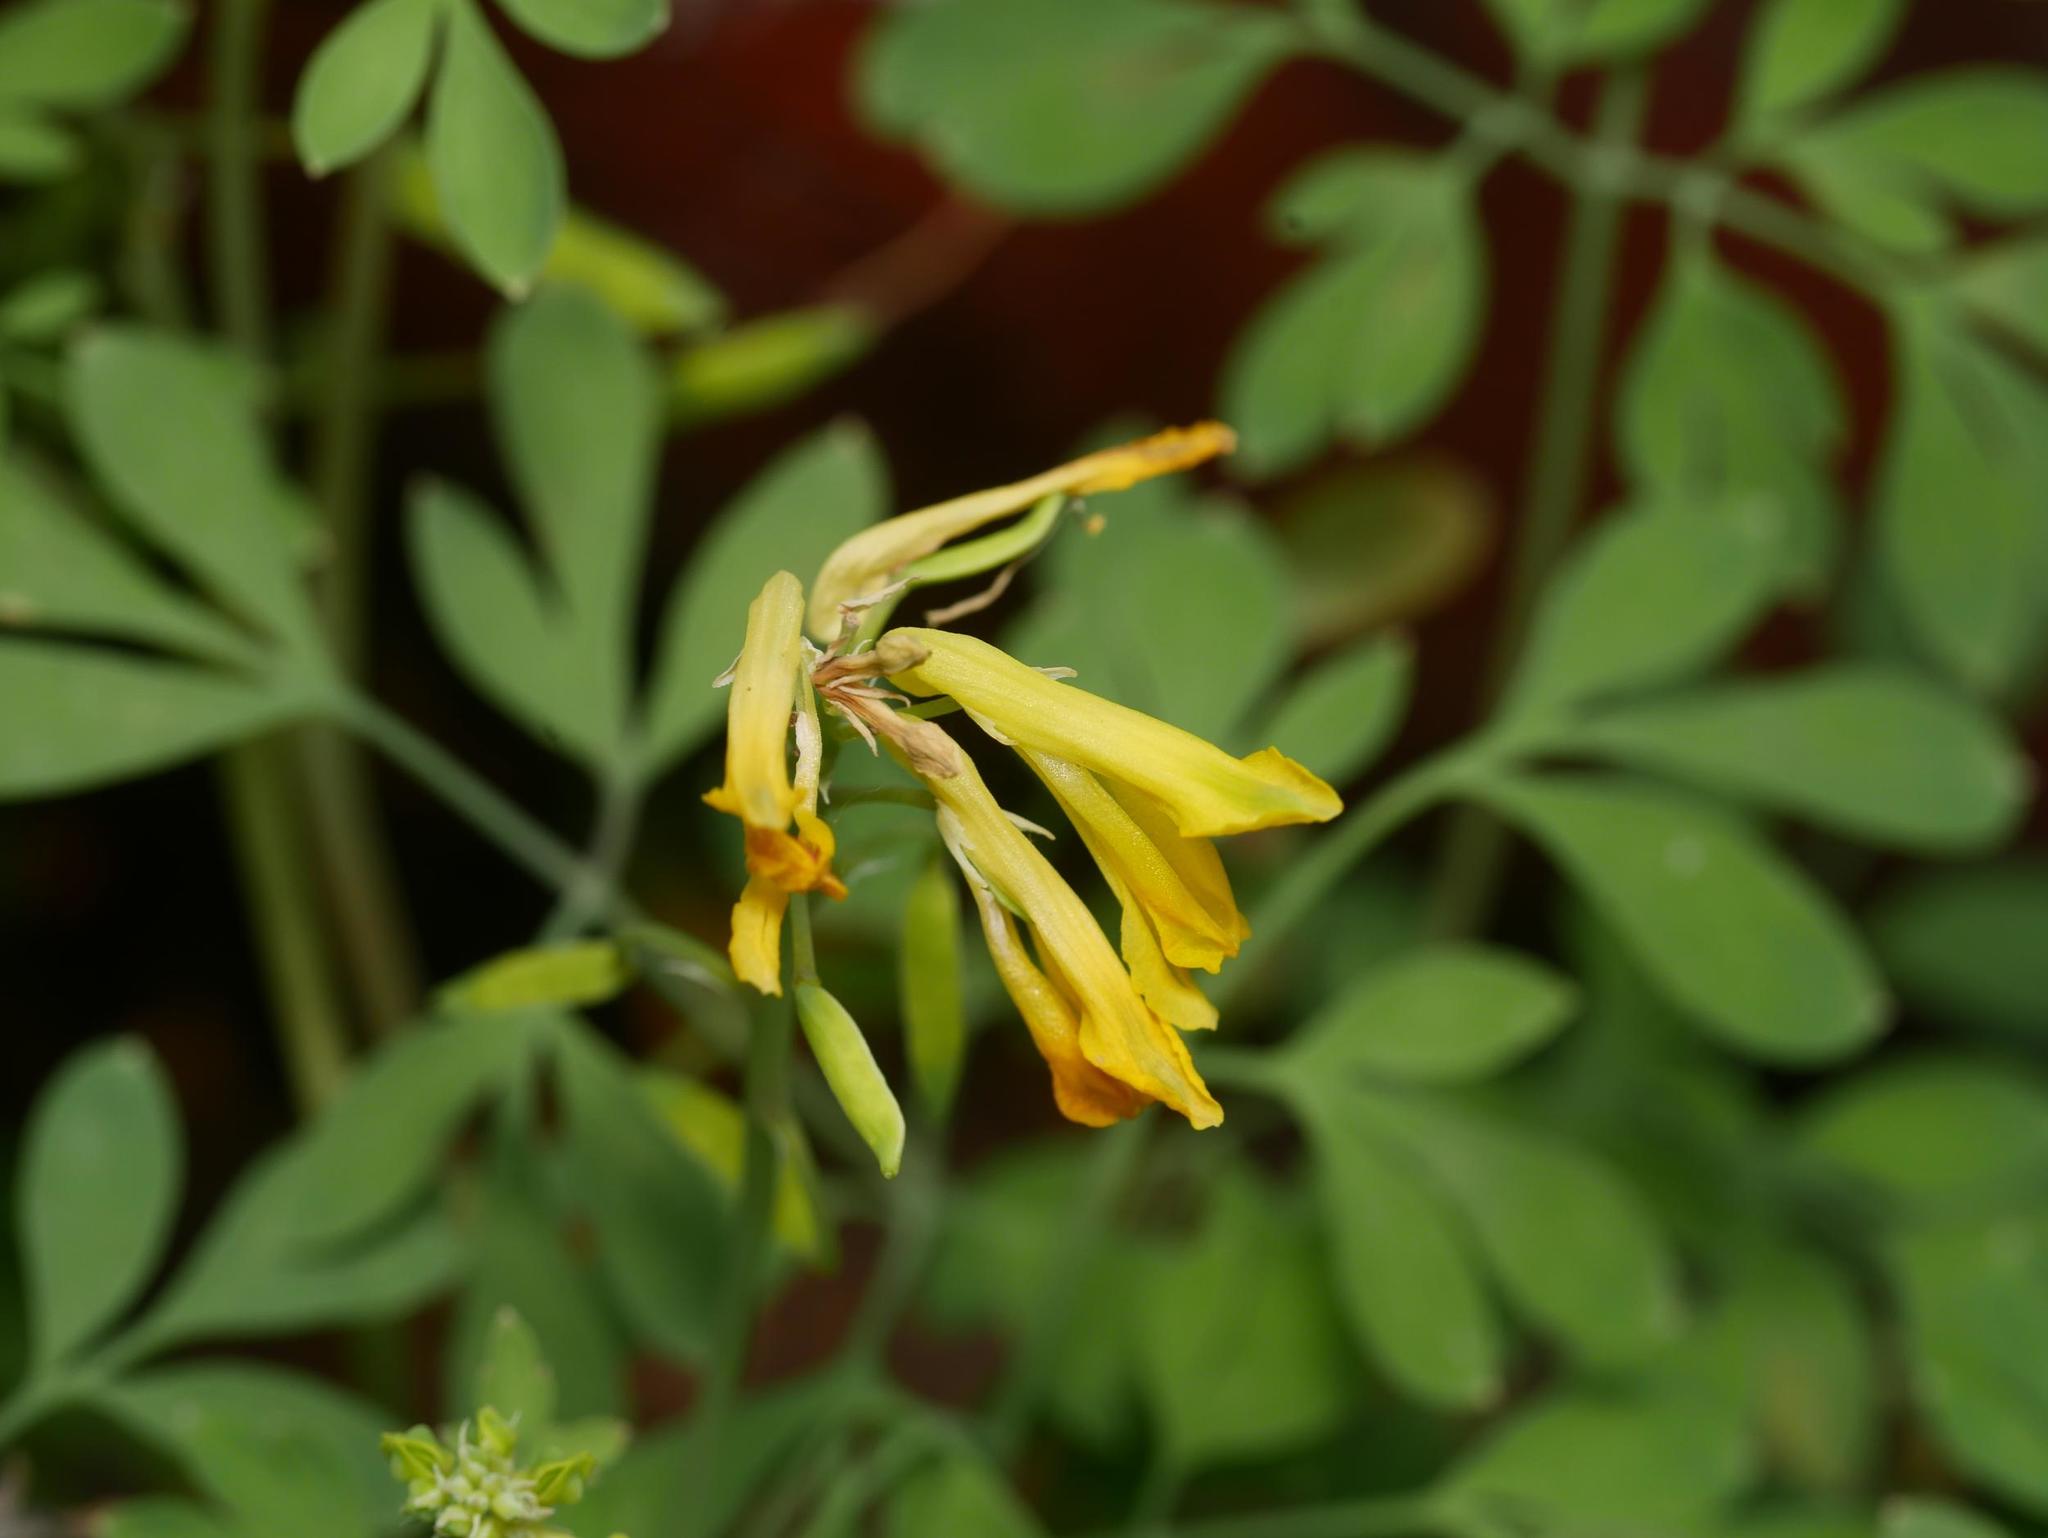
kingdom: Plantae
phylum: Tracheophyta
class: Magnoliopsida
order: Ranunculales
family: Papaveraceae
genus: Pseudofumaria
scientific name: Pseudofumaria lutea
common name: Yellow corydalis
